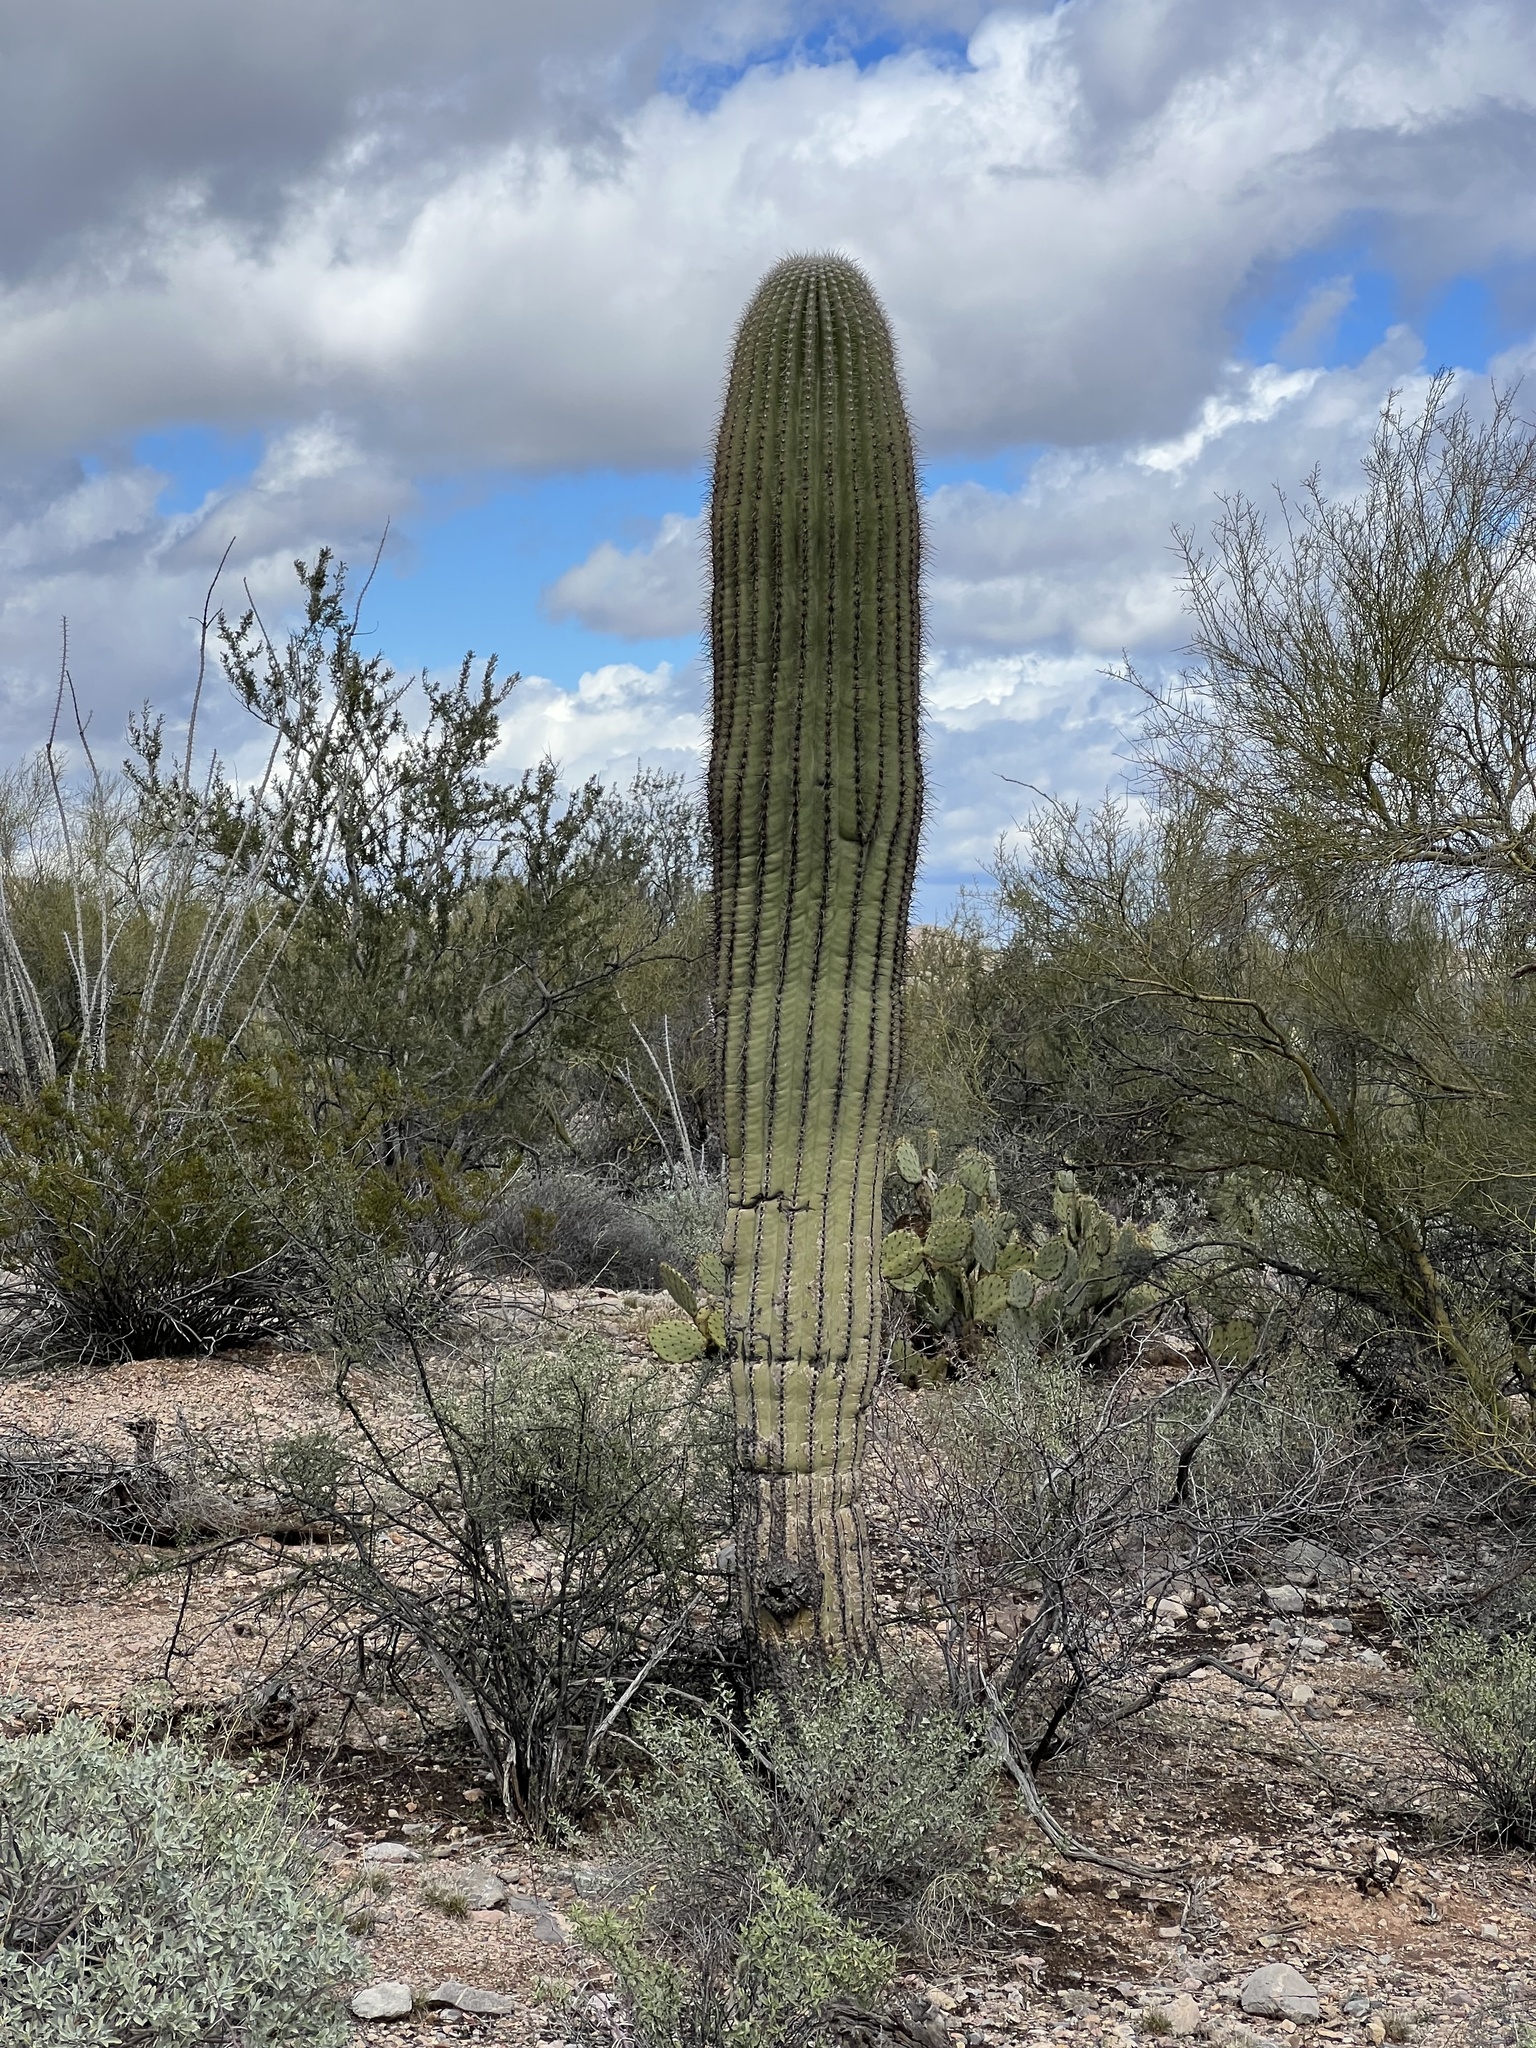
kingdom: Plantae
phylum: Tracheophyta
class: Magnoliopsida
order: Caryophyllales
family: Cactaceae
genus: Carnegiea
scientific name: Carnegiea gigantea
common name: Saguaro
